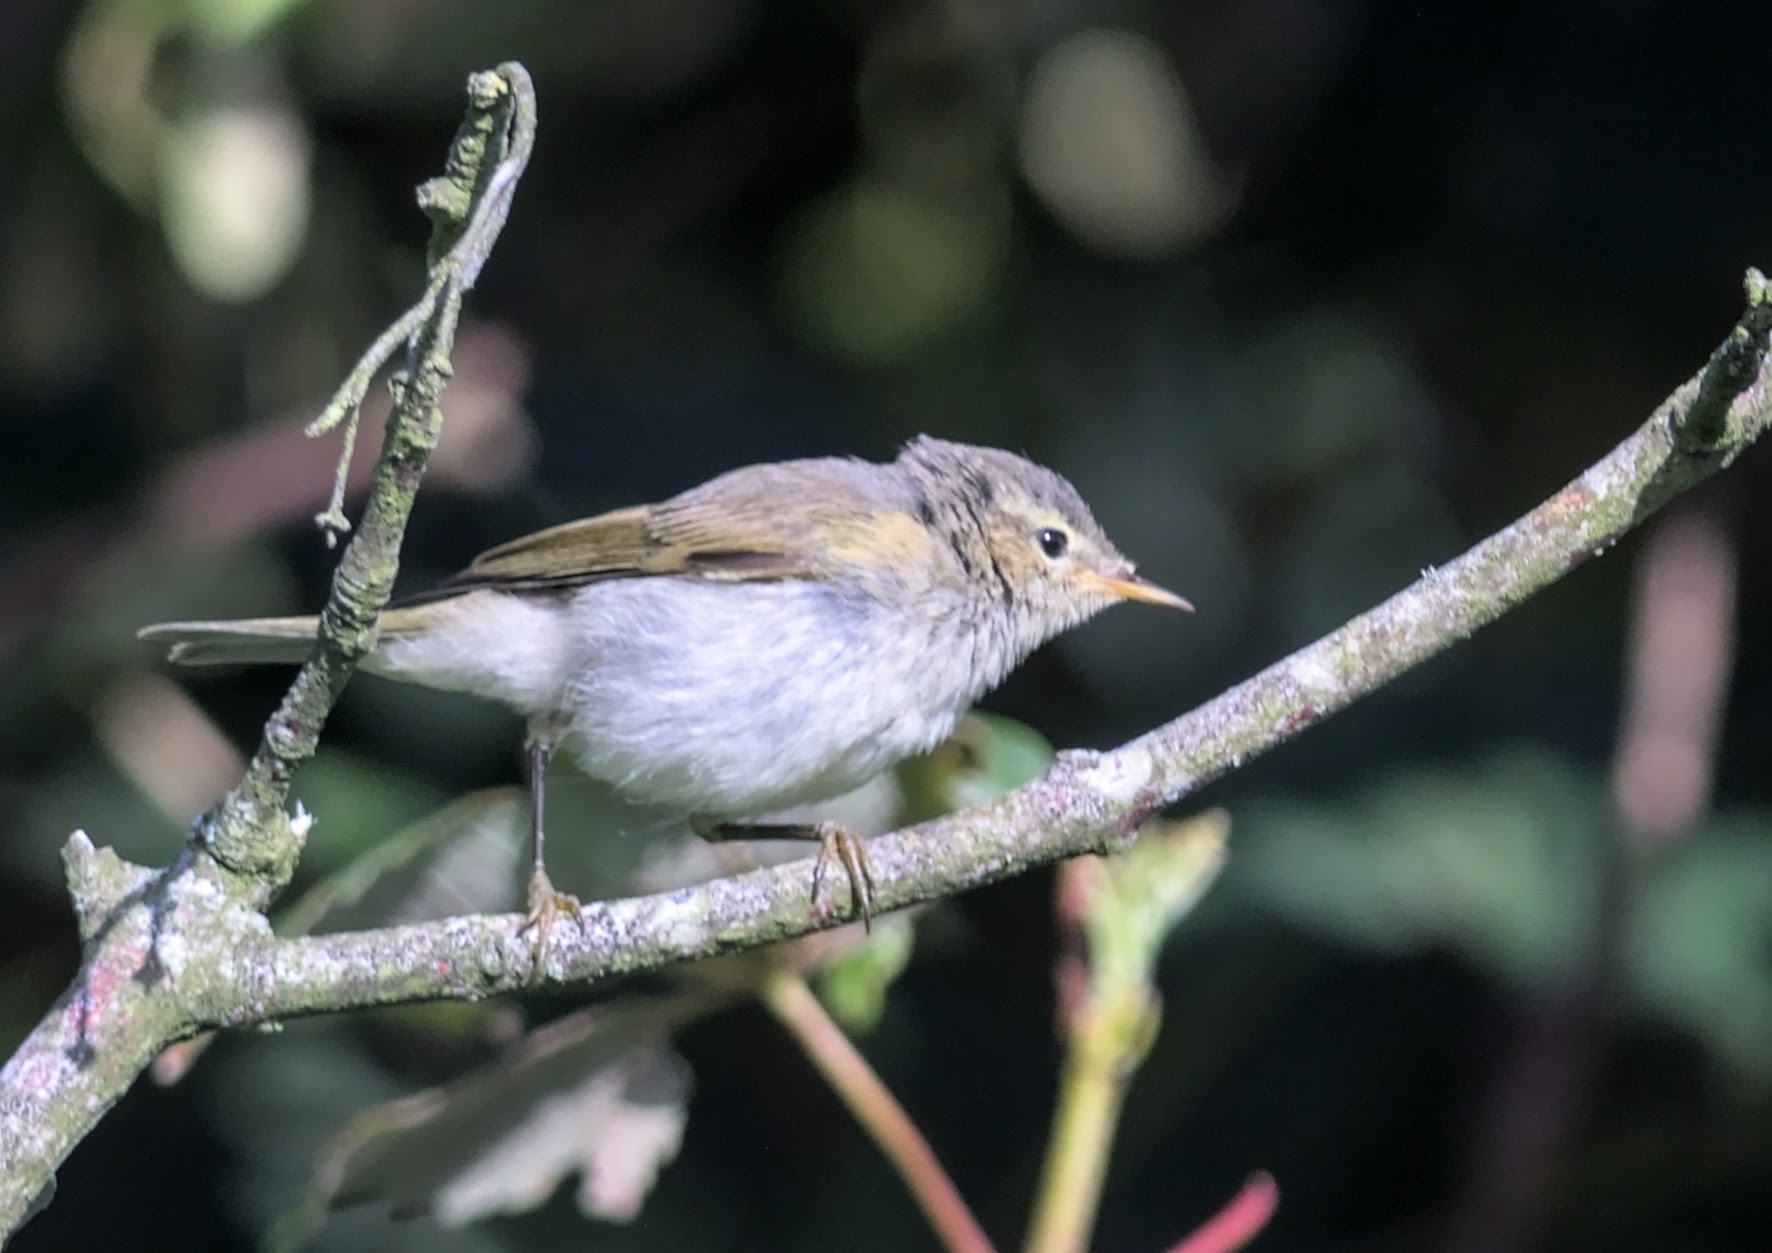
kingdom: Animalia
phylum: Chordata
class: Aves
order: Passeriformes
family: Phylloscopidae
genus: Phylloscopus
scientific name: Phylloscopus collybita
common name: Common chiffchaff
